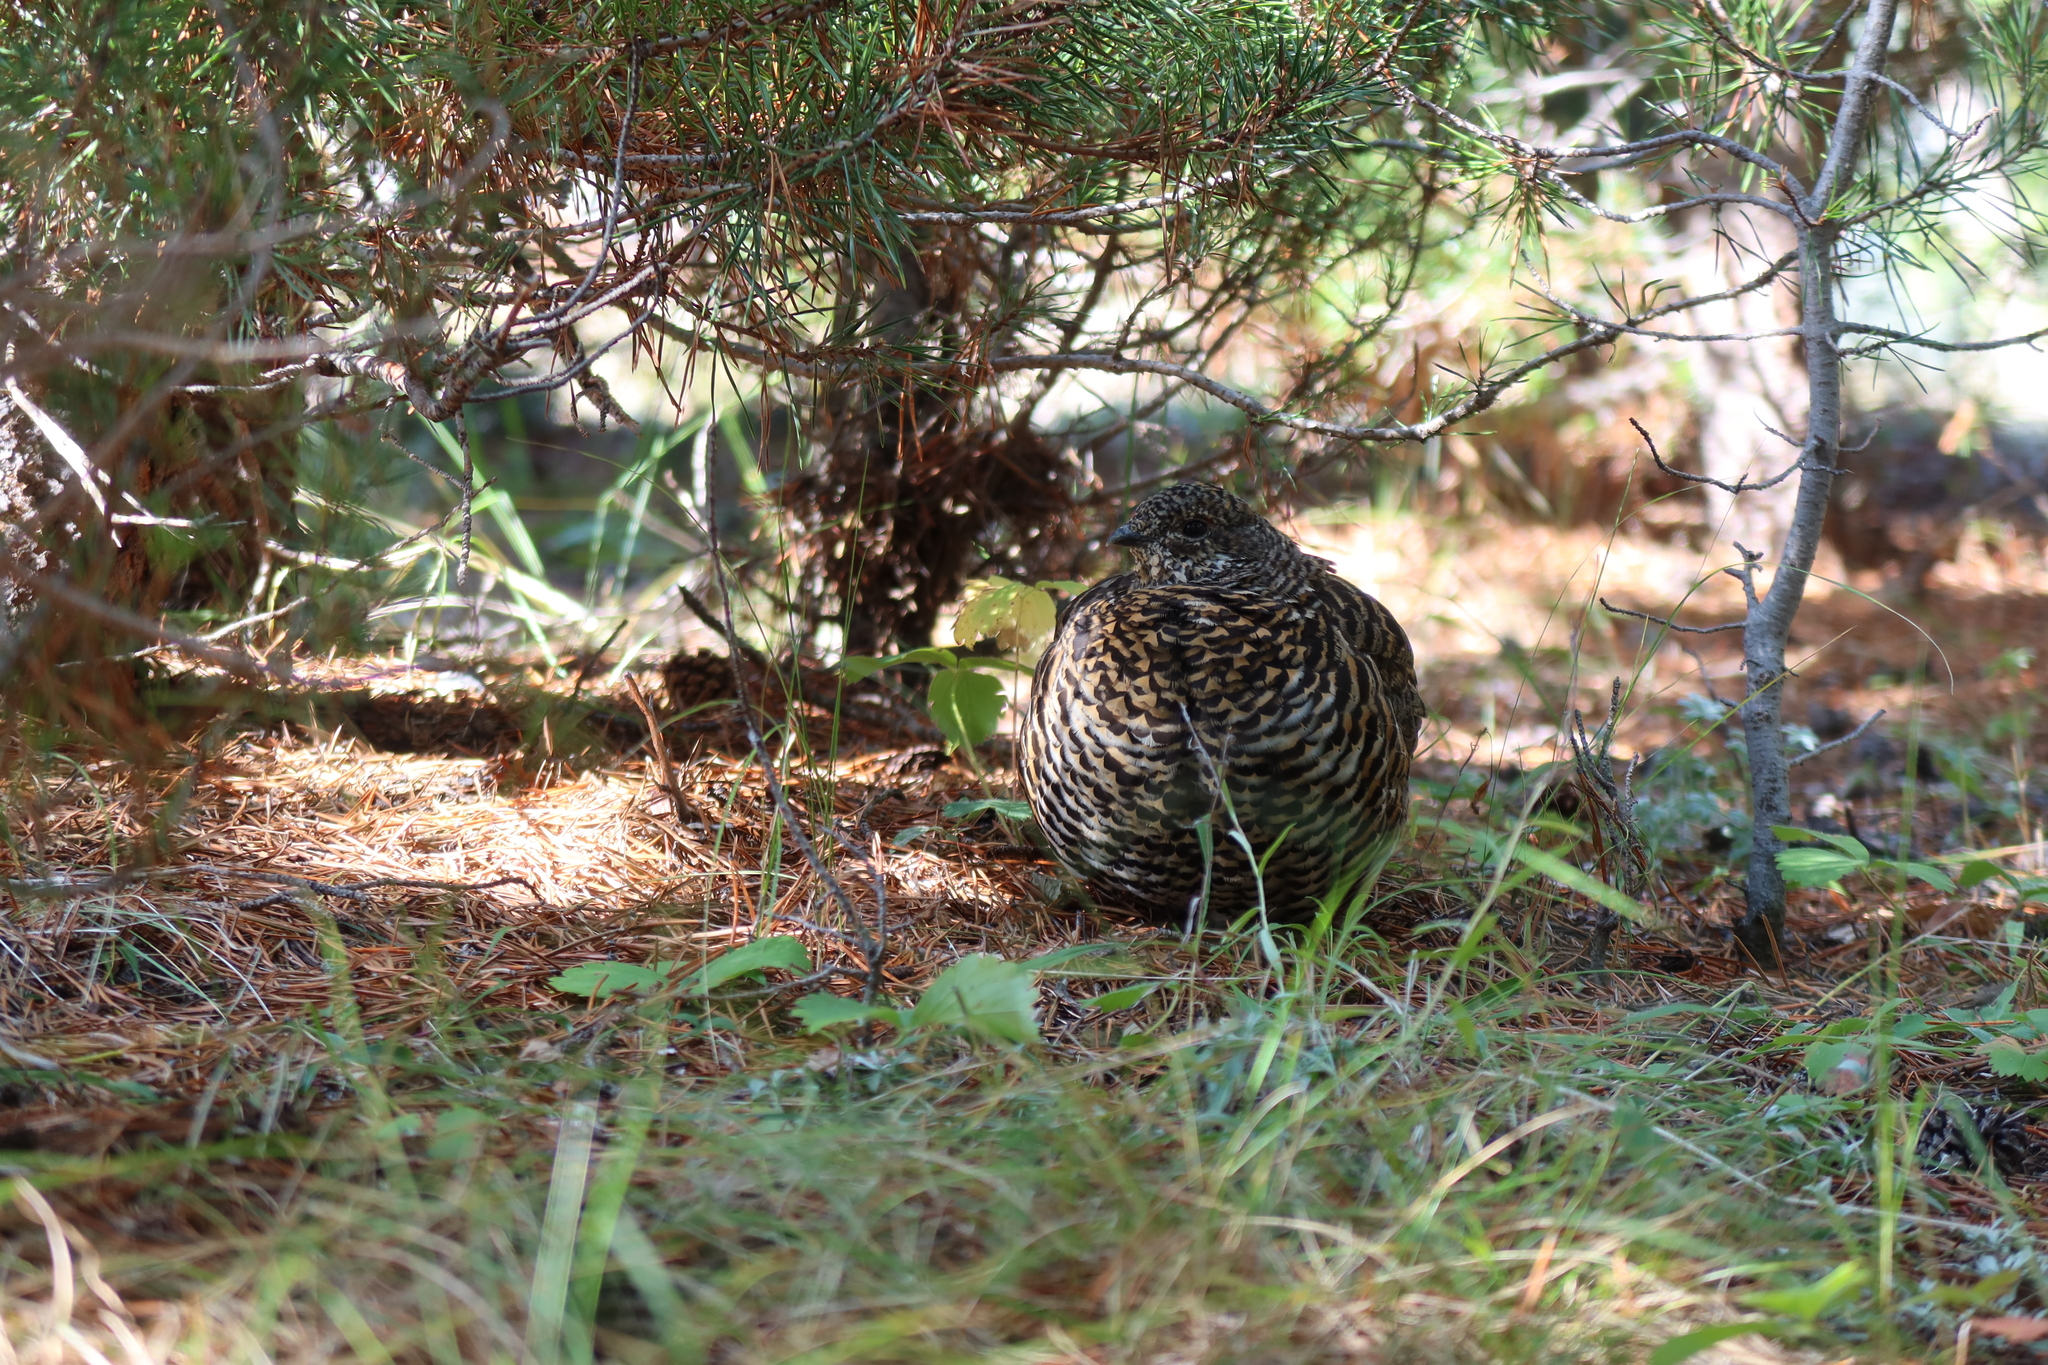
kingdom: Animalia
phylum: Chordata
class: Aves
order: Galliformes
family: Phasianidae
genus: Canachites
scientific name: Canachites canadensis
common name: Spruce grouse
